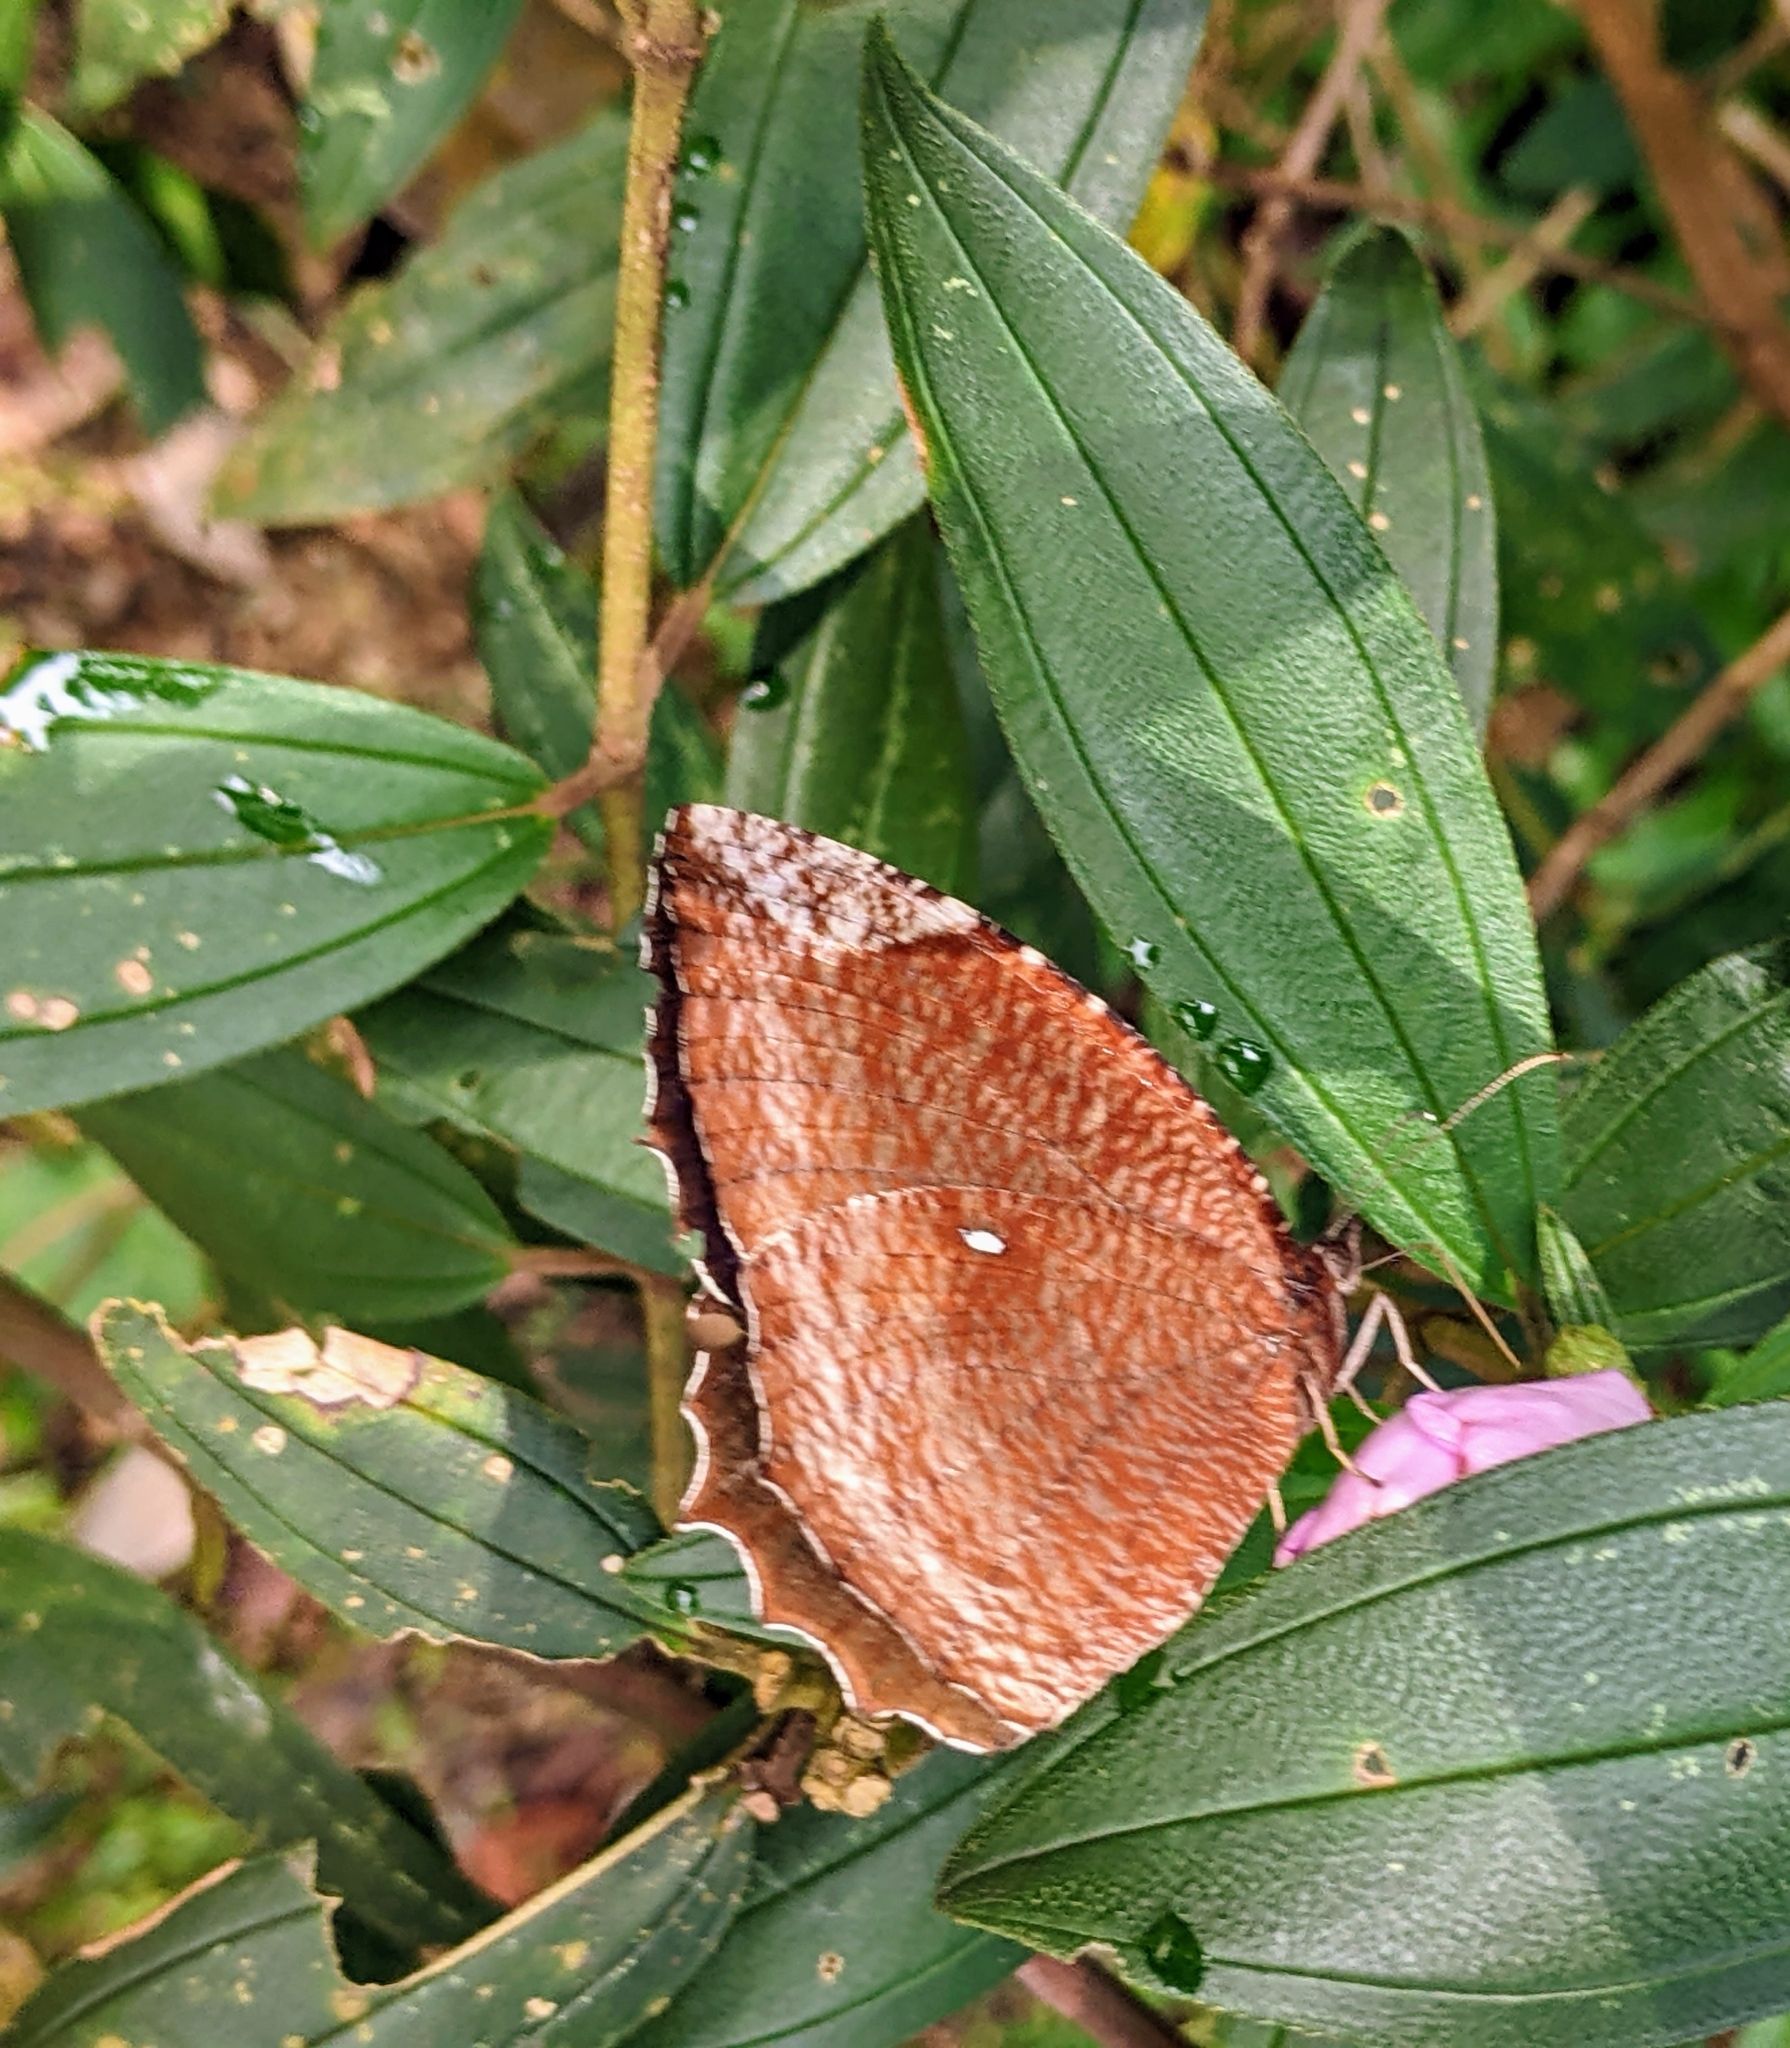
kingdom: Animalia
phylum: Arthropoda
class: Insecta
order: Lepidoptera
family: Nymphalidae
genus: Elymnias
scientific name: Elymnias hypermnestra
